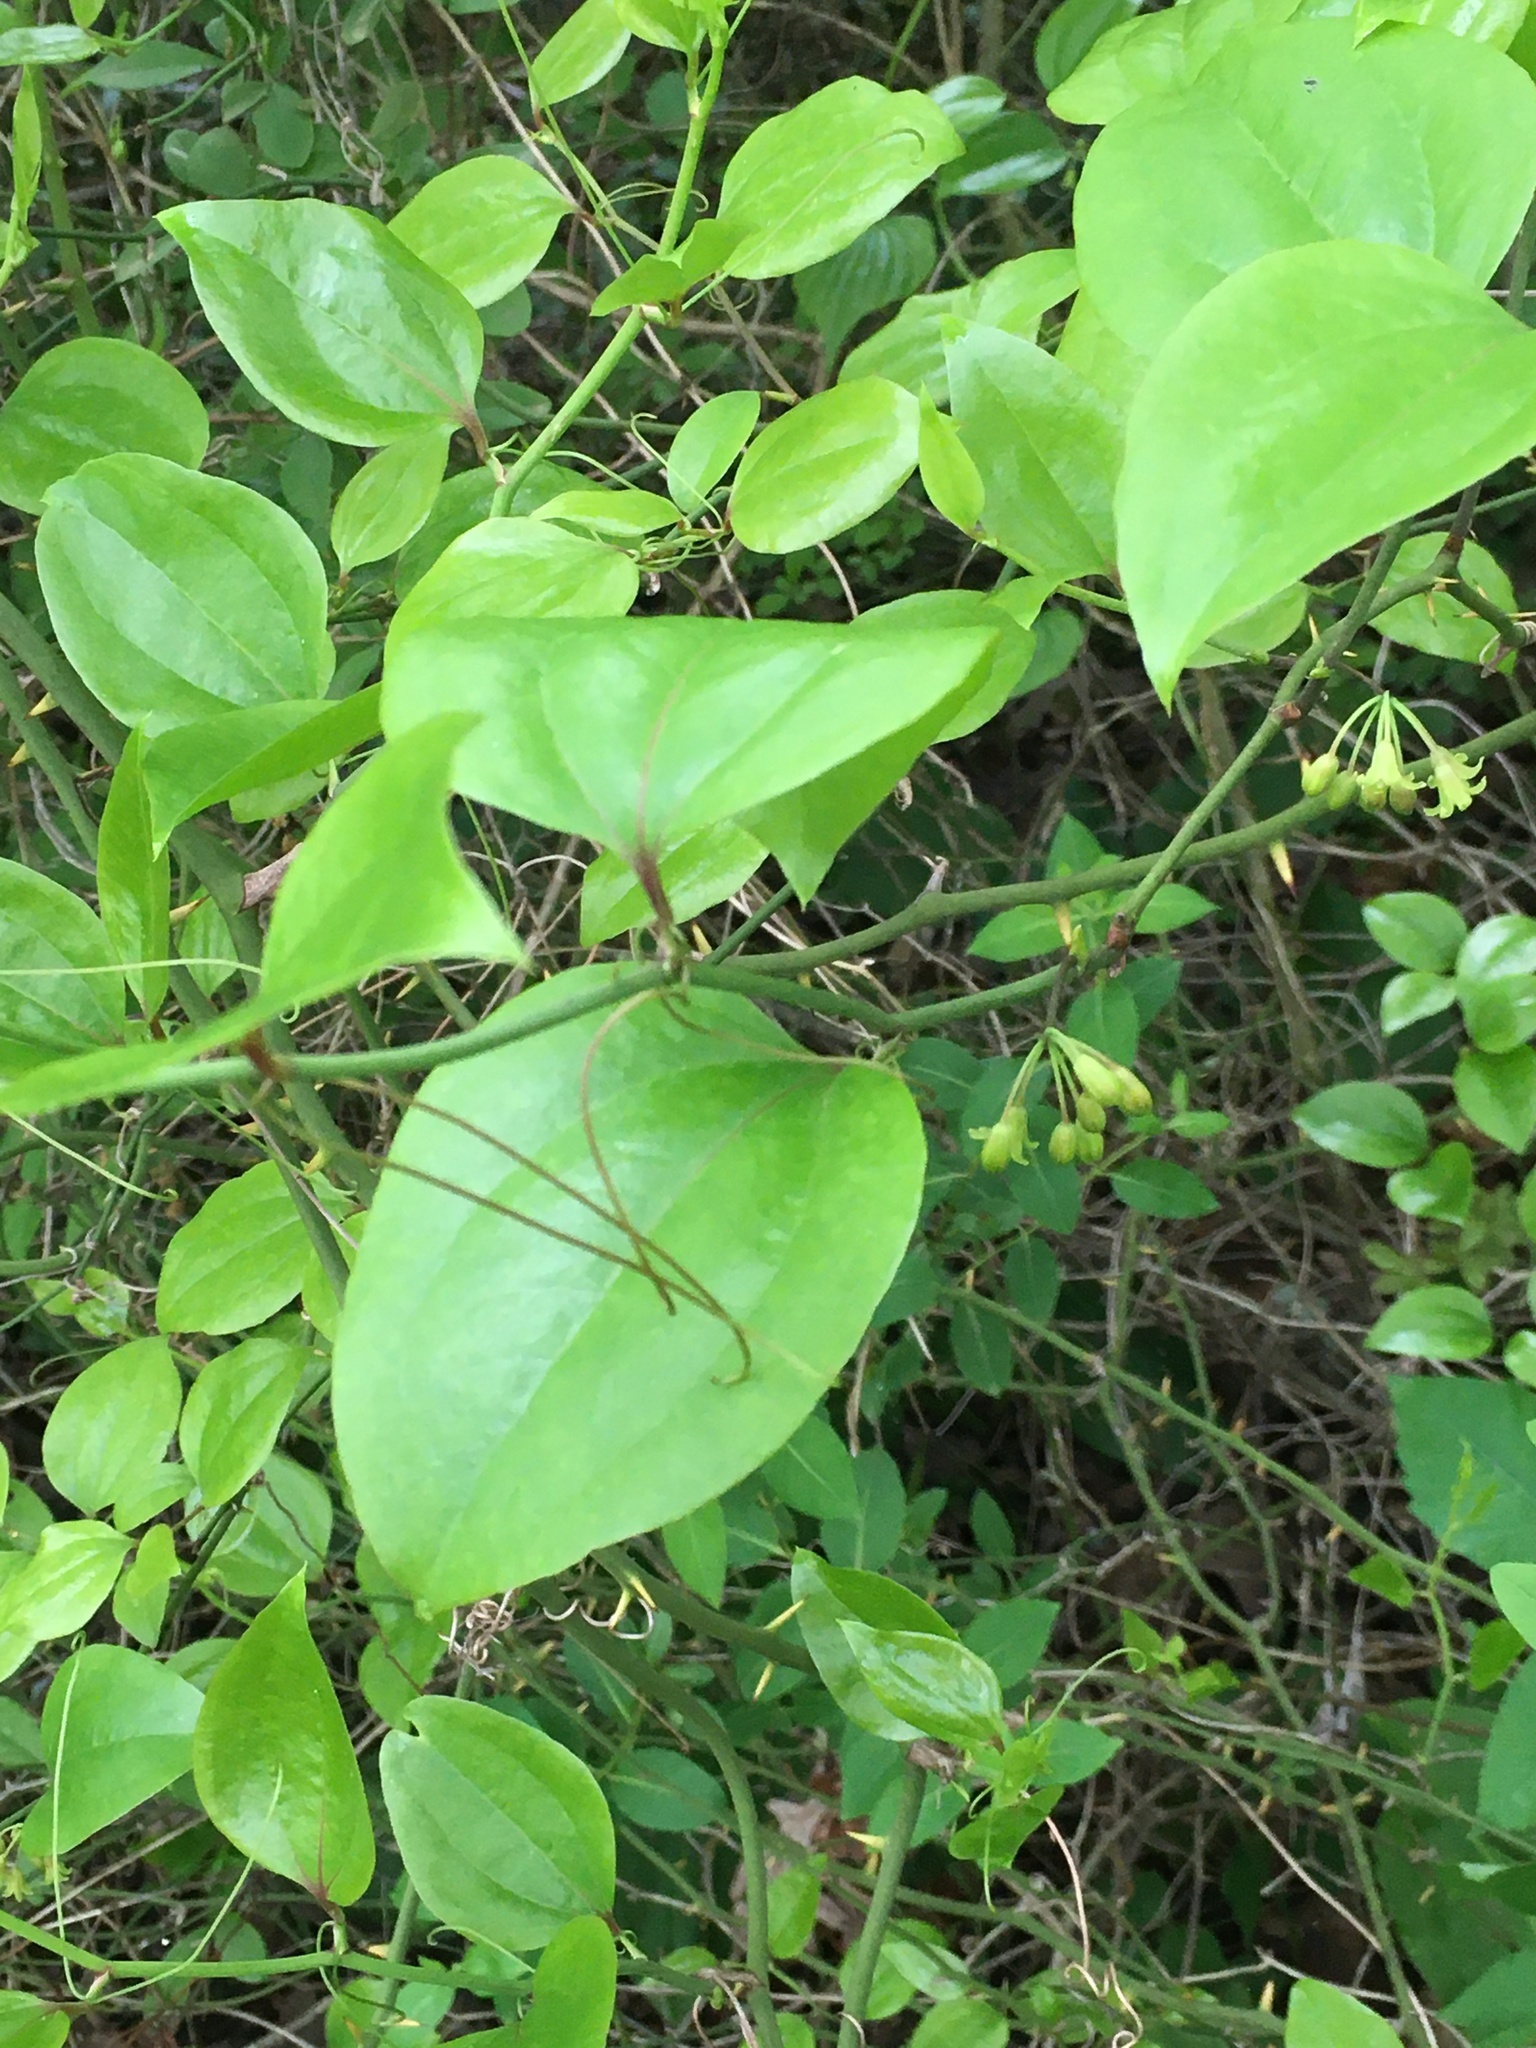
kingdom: Plantae
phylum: Tracheophyta
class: Liliopsida
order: Liliales
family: Smilacaceae
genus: Smilax
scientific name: Smilax rotundifolia
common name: Bullbriar
